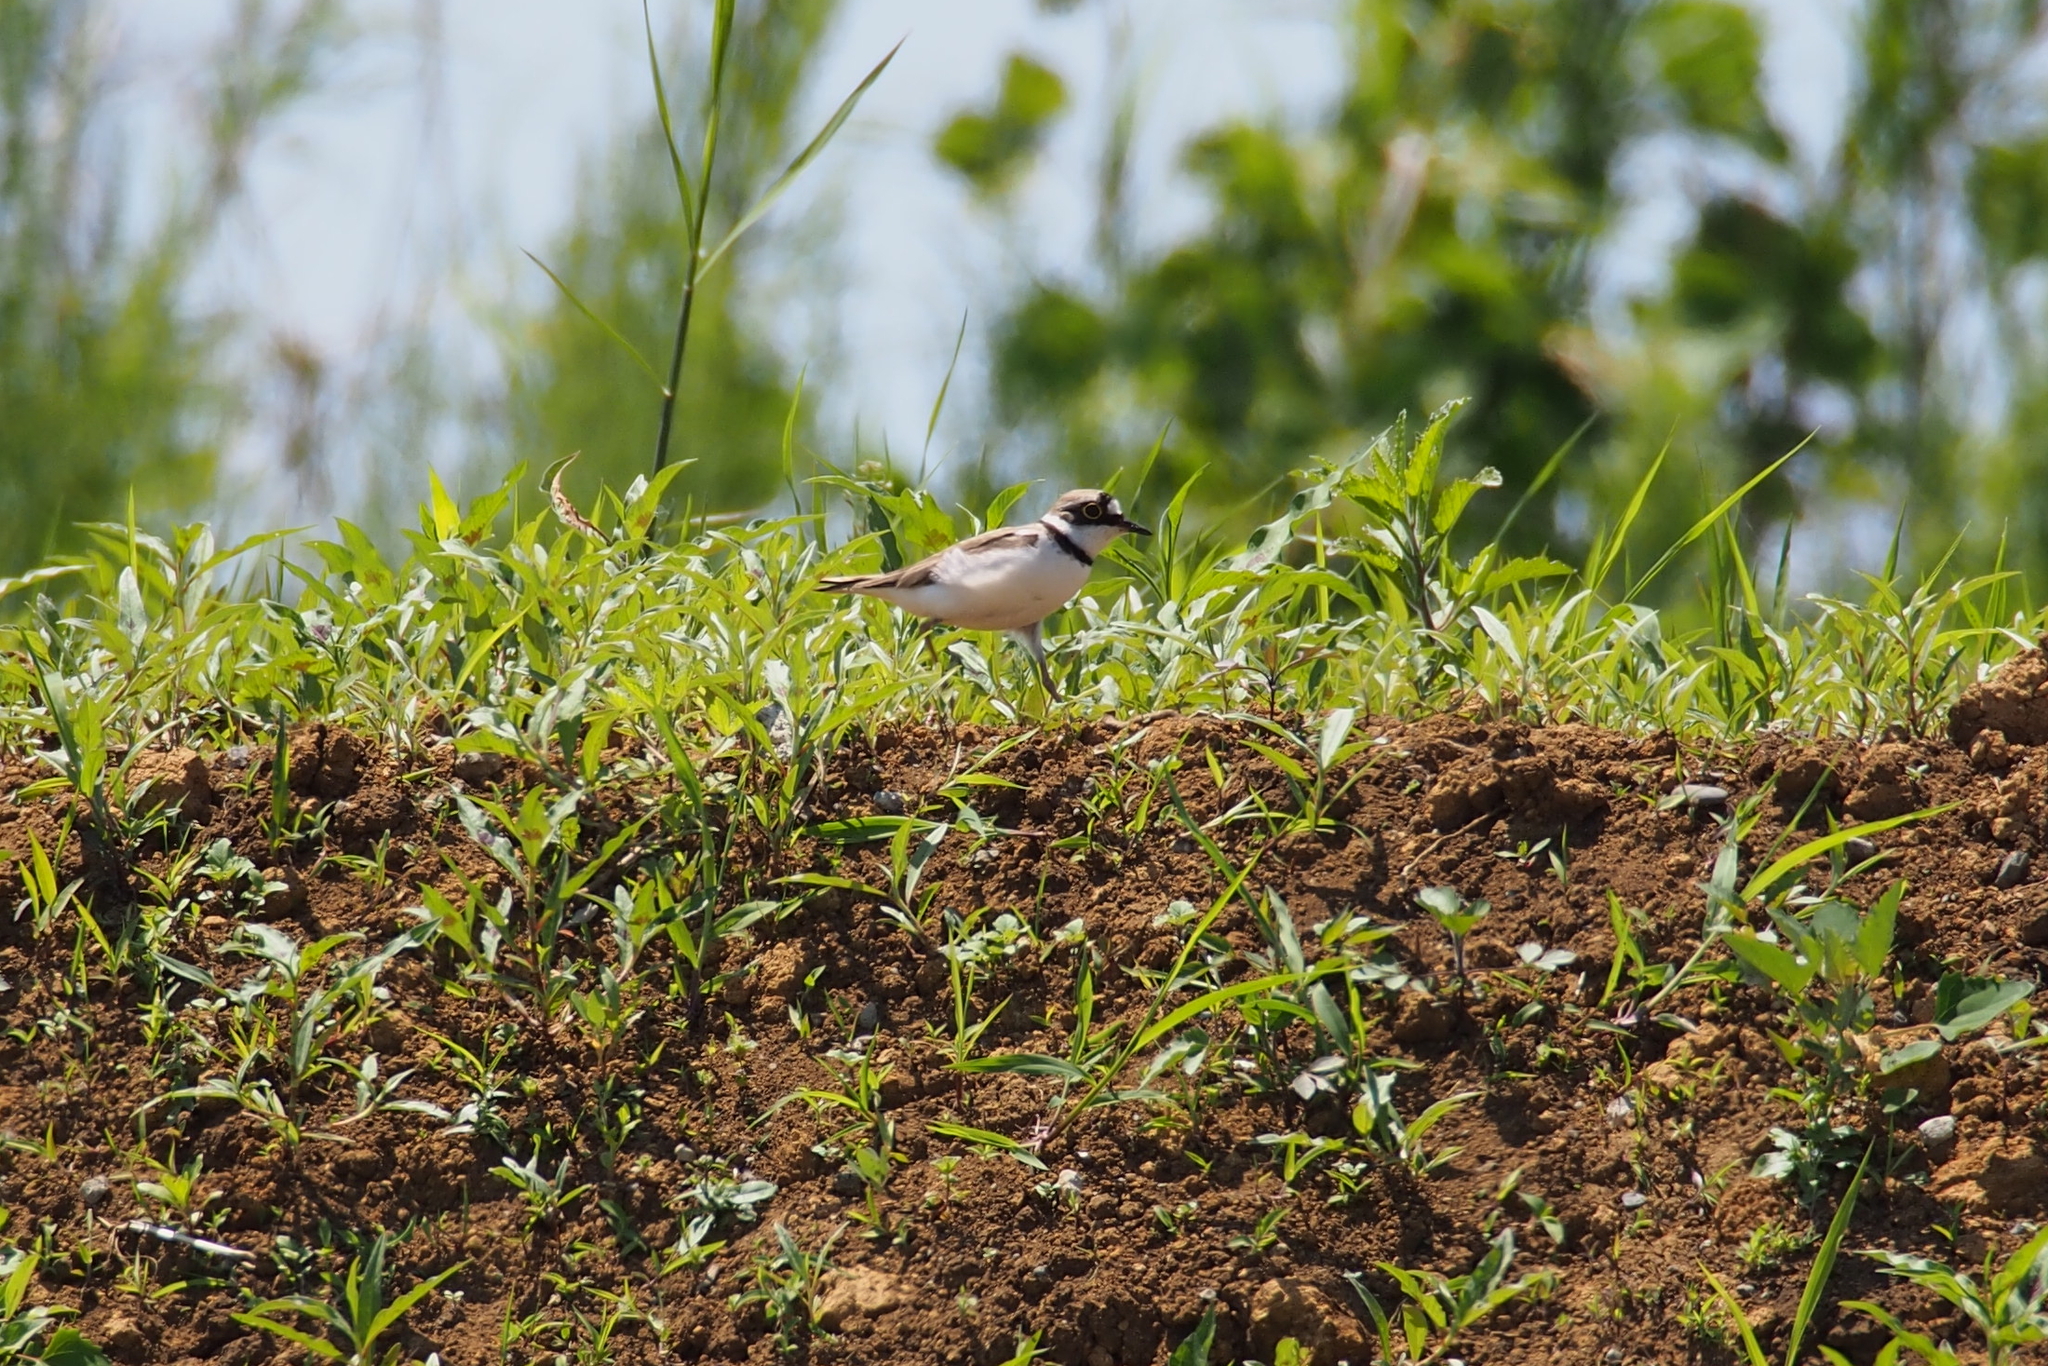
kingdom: Animalia
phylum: Chordata
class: Aves
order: Charadriiformes
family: Charadriidae
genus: Charadrius
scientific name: Charadrius dubius
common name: Little ringed plover
